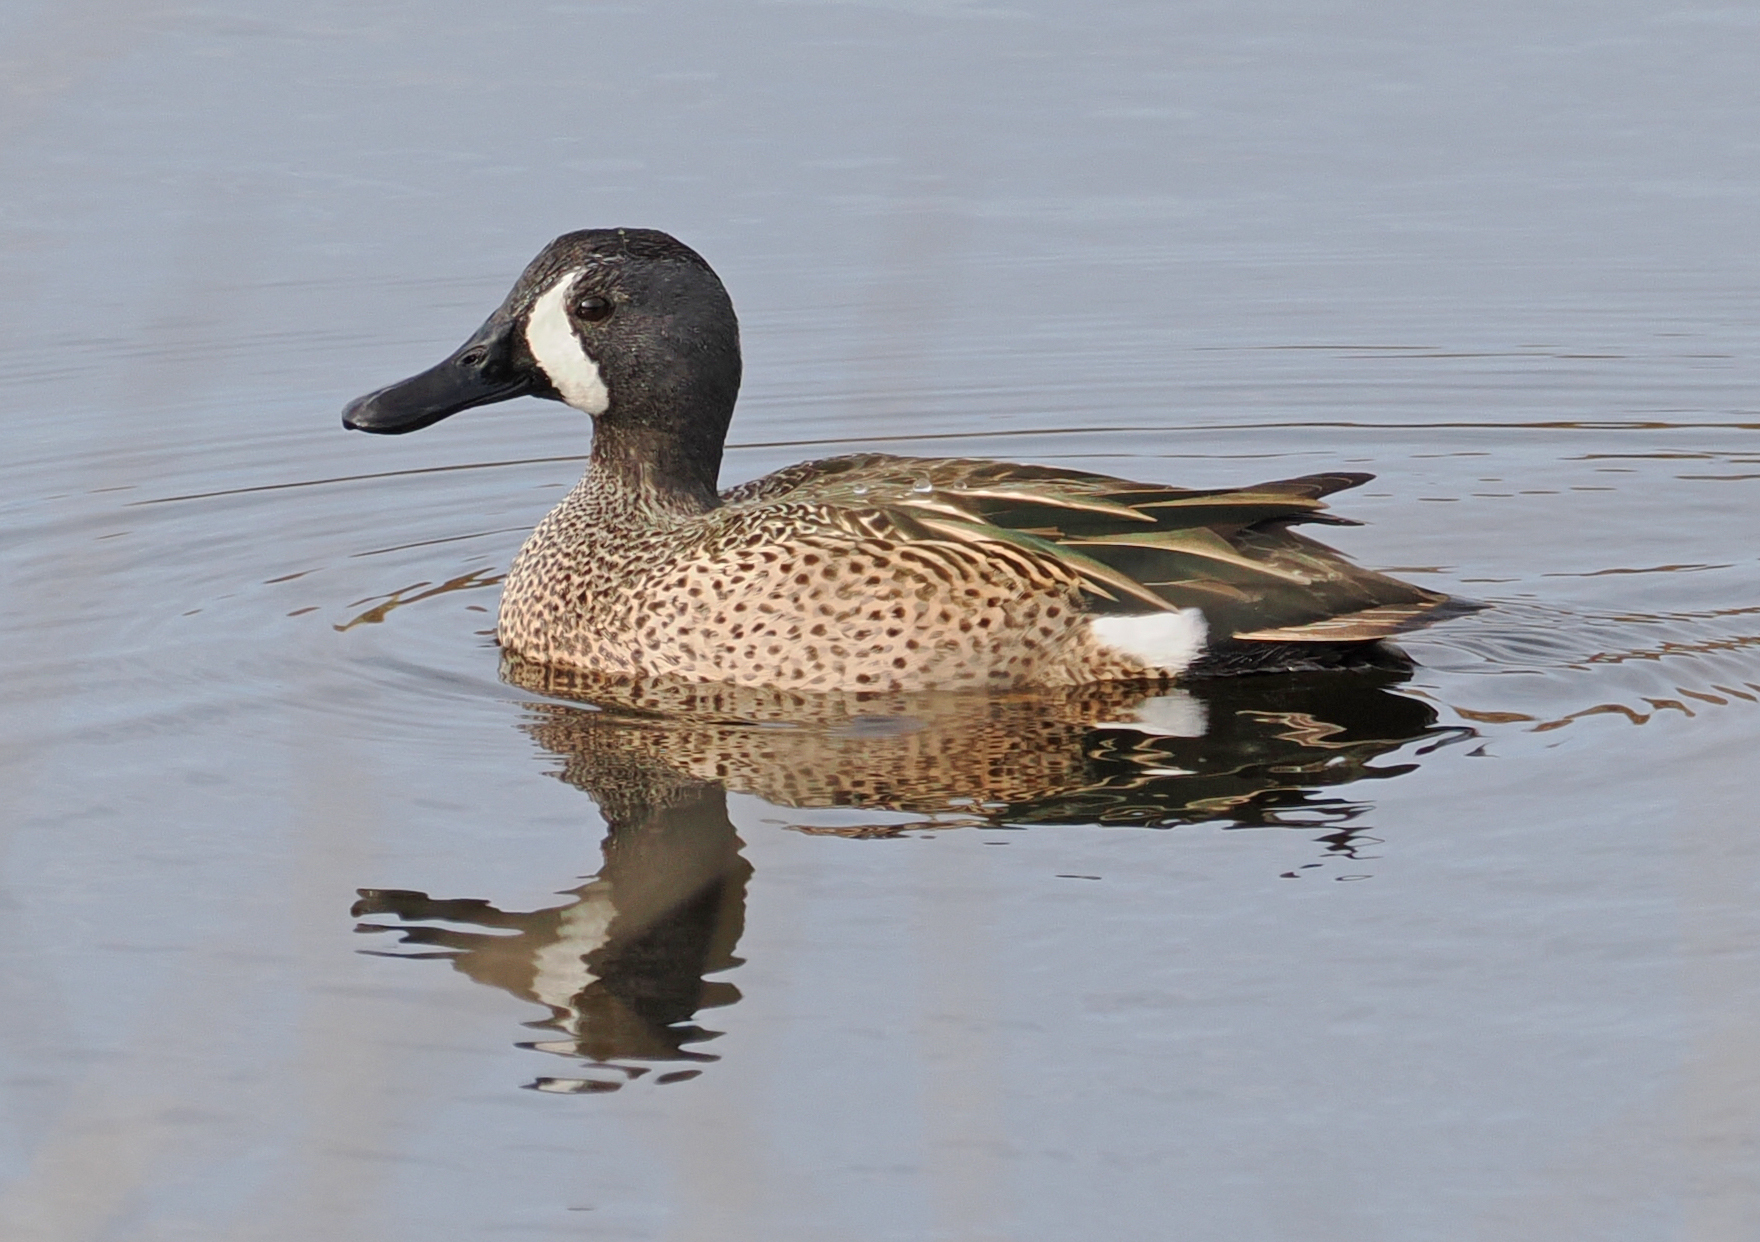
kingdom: Animalia
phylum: Chordata
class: Aves
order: Anseriformes
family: Anatidae
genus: Spatula
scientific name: Spatula discors
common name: Blue-winged teal
